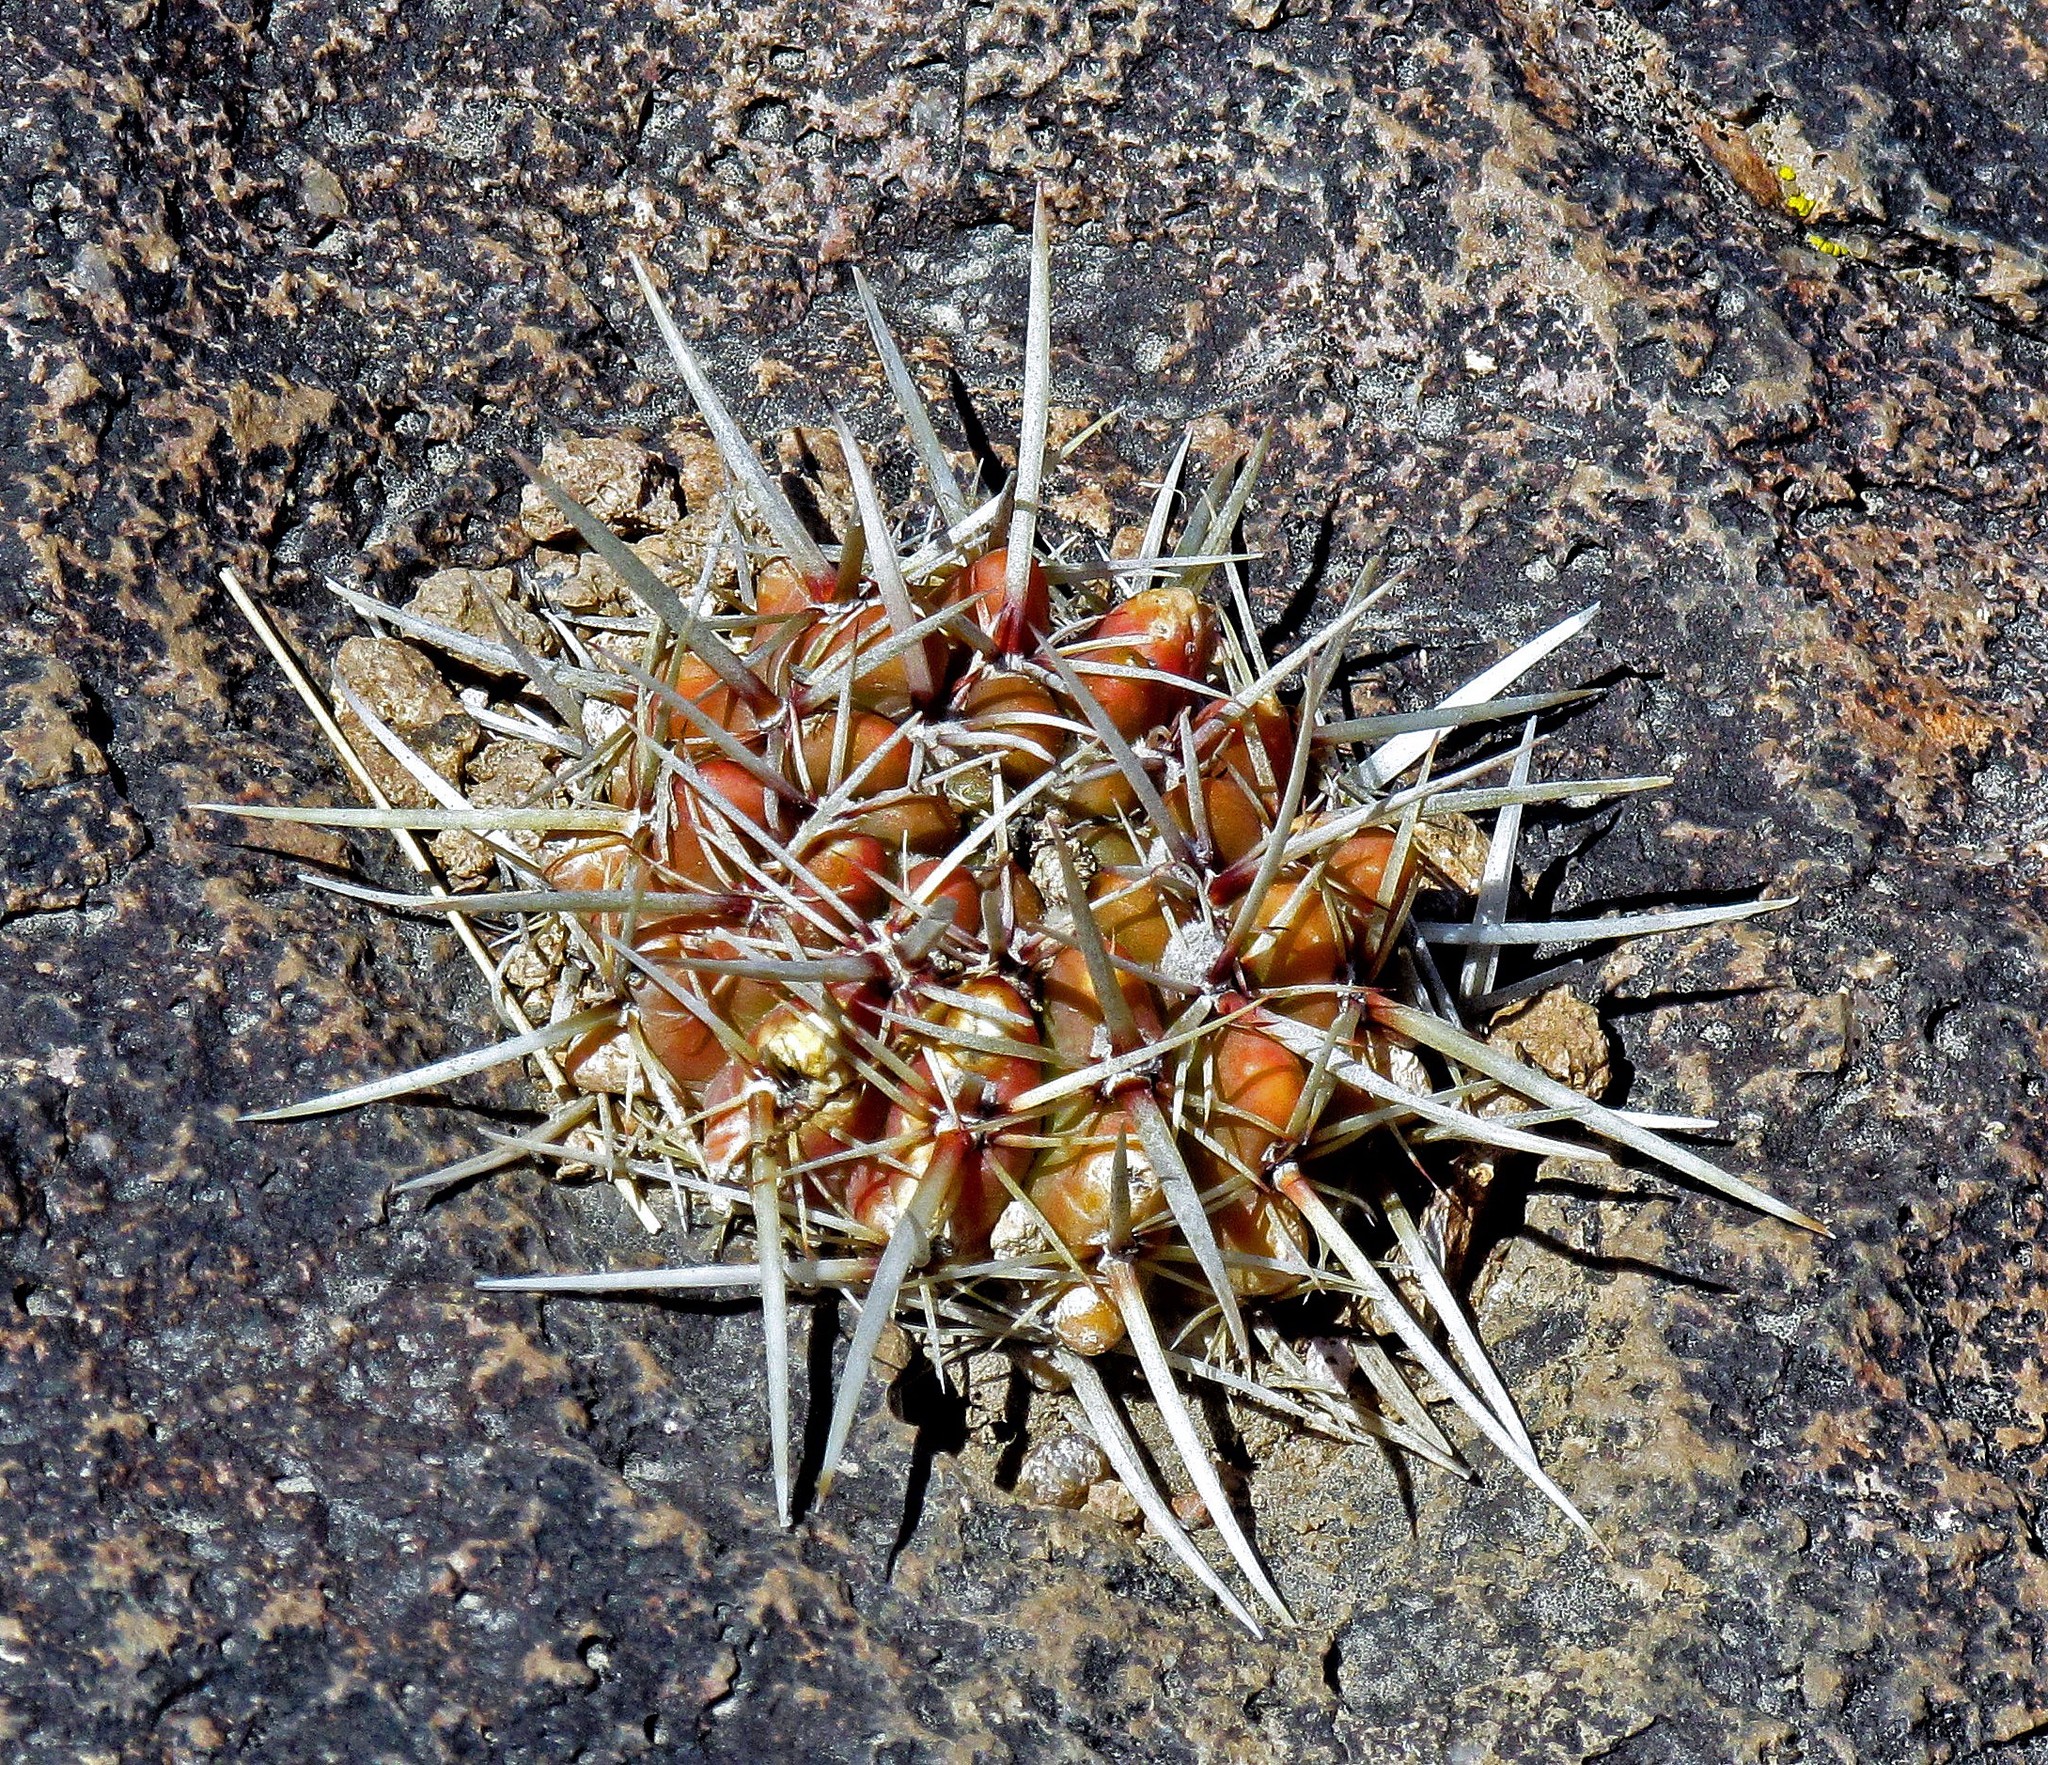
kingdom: Plantae
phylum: Tracheophyta
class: Magnoliopsida
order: Caryophyllales
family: Cactaceae
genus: Parodia
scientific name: Parodia mammulosa
